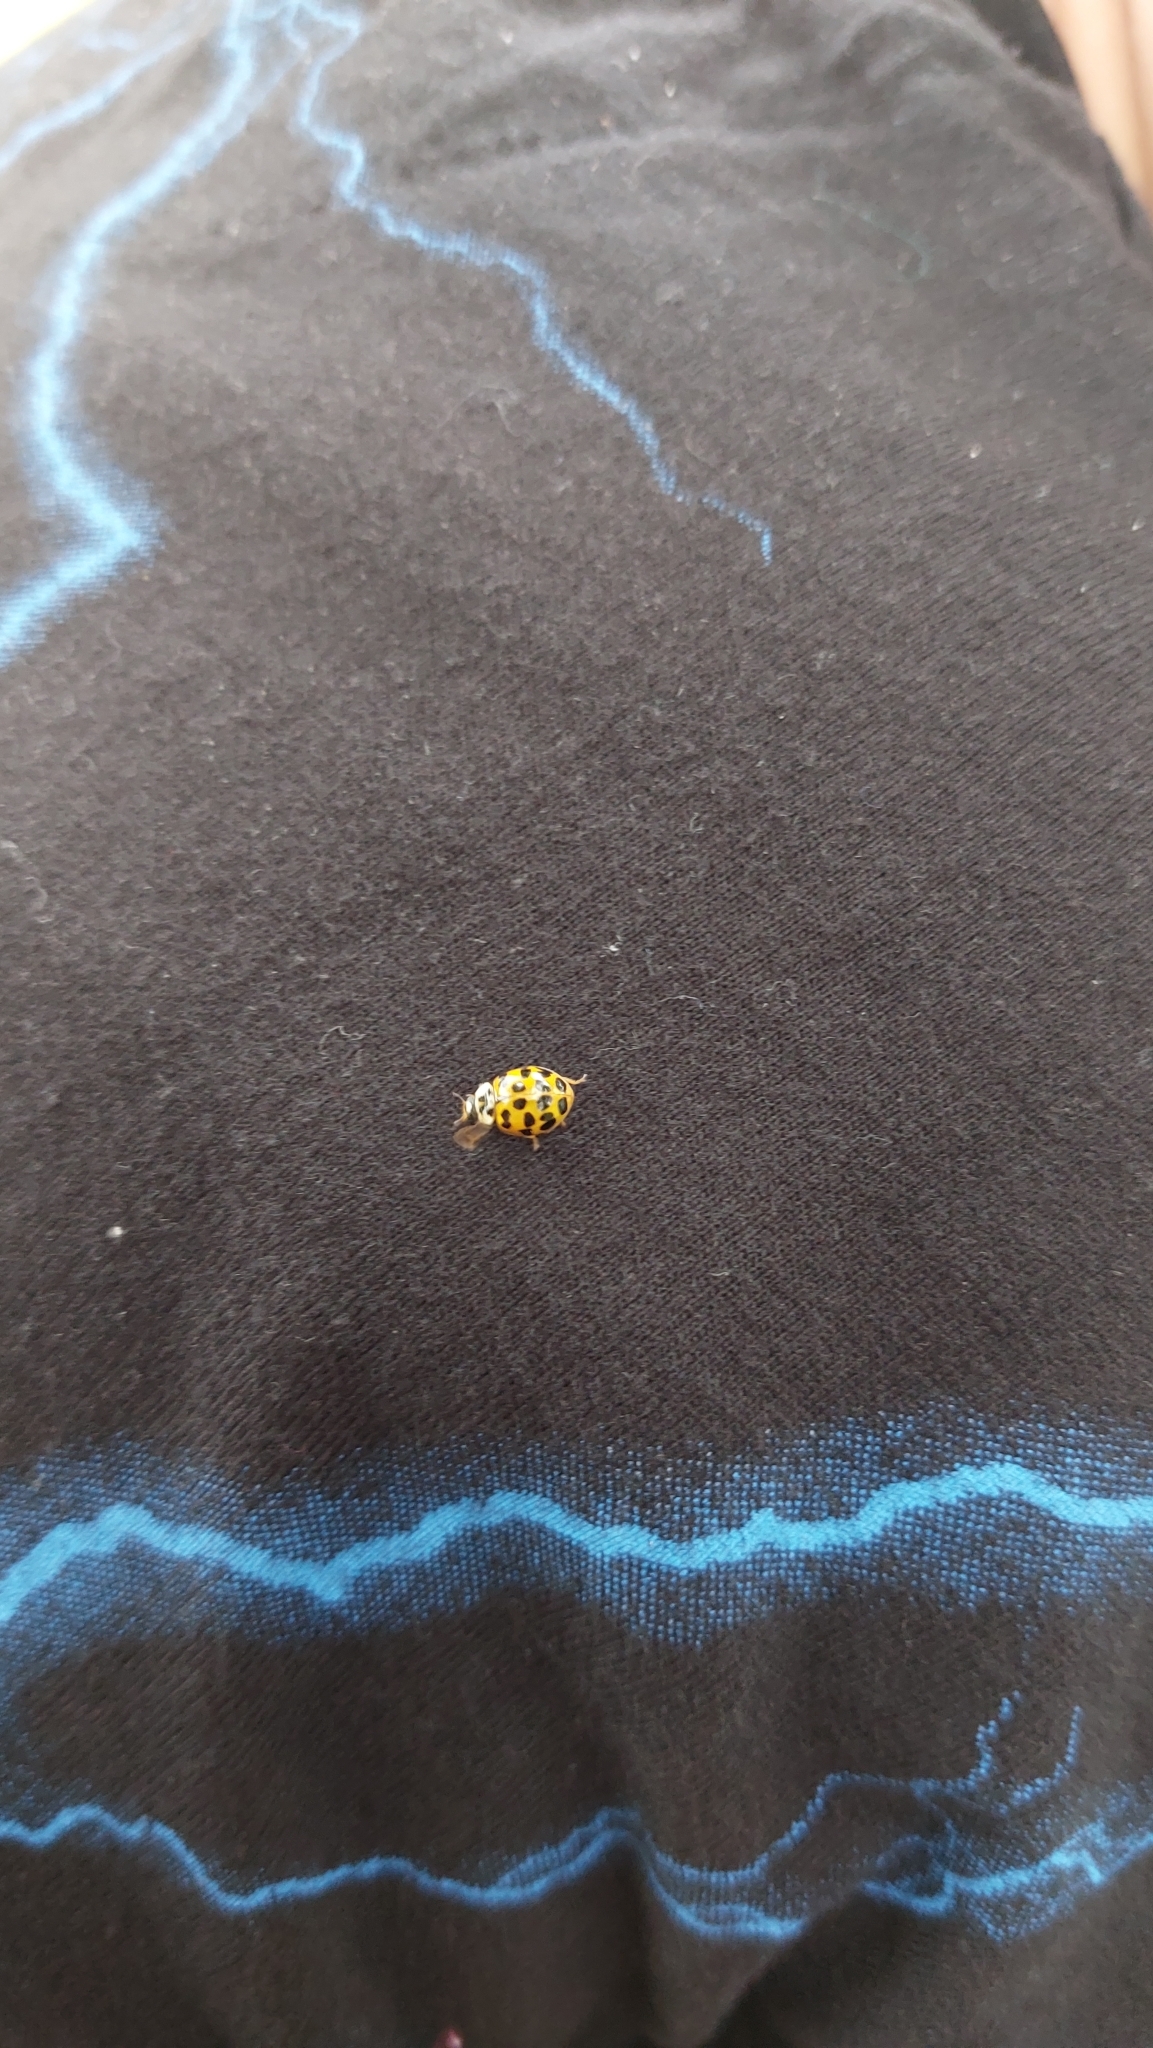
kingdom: Animalia
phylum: Arthropoda
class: Insecta
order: Coleoptera
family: Coccinellidae
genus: Harmonia
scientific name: Harmonia axyridis
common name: Harlequin ladybird
